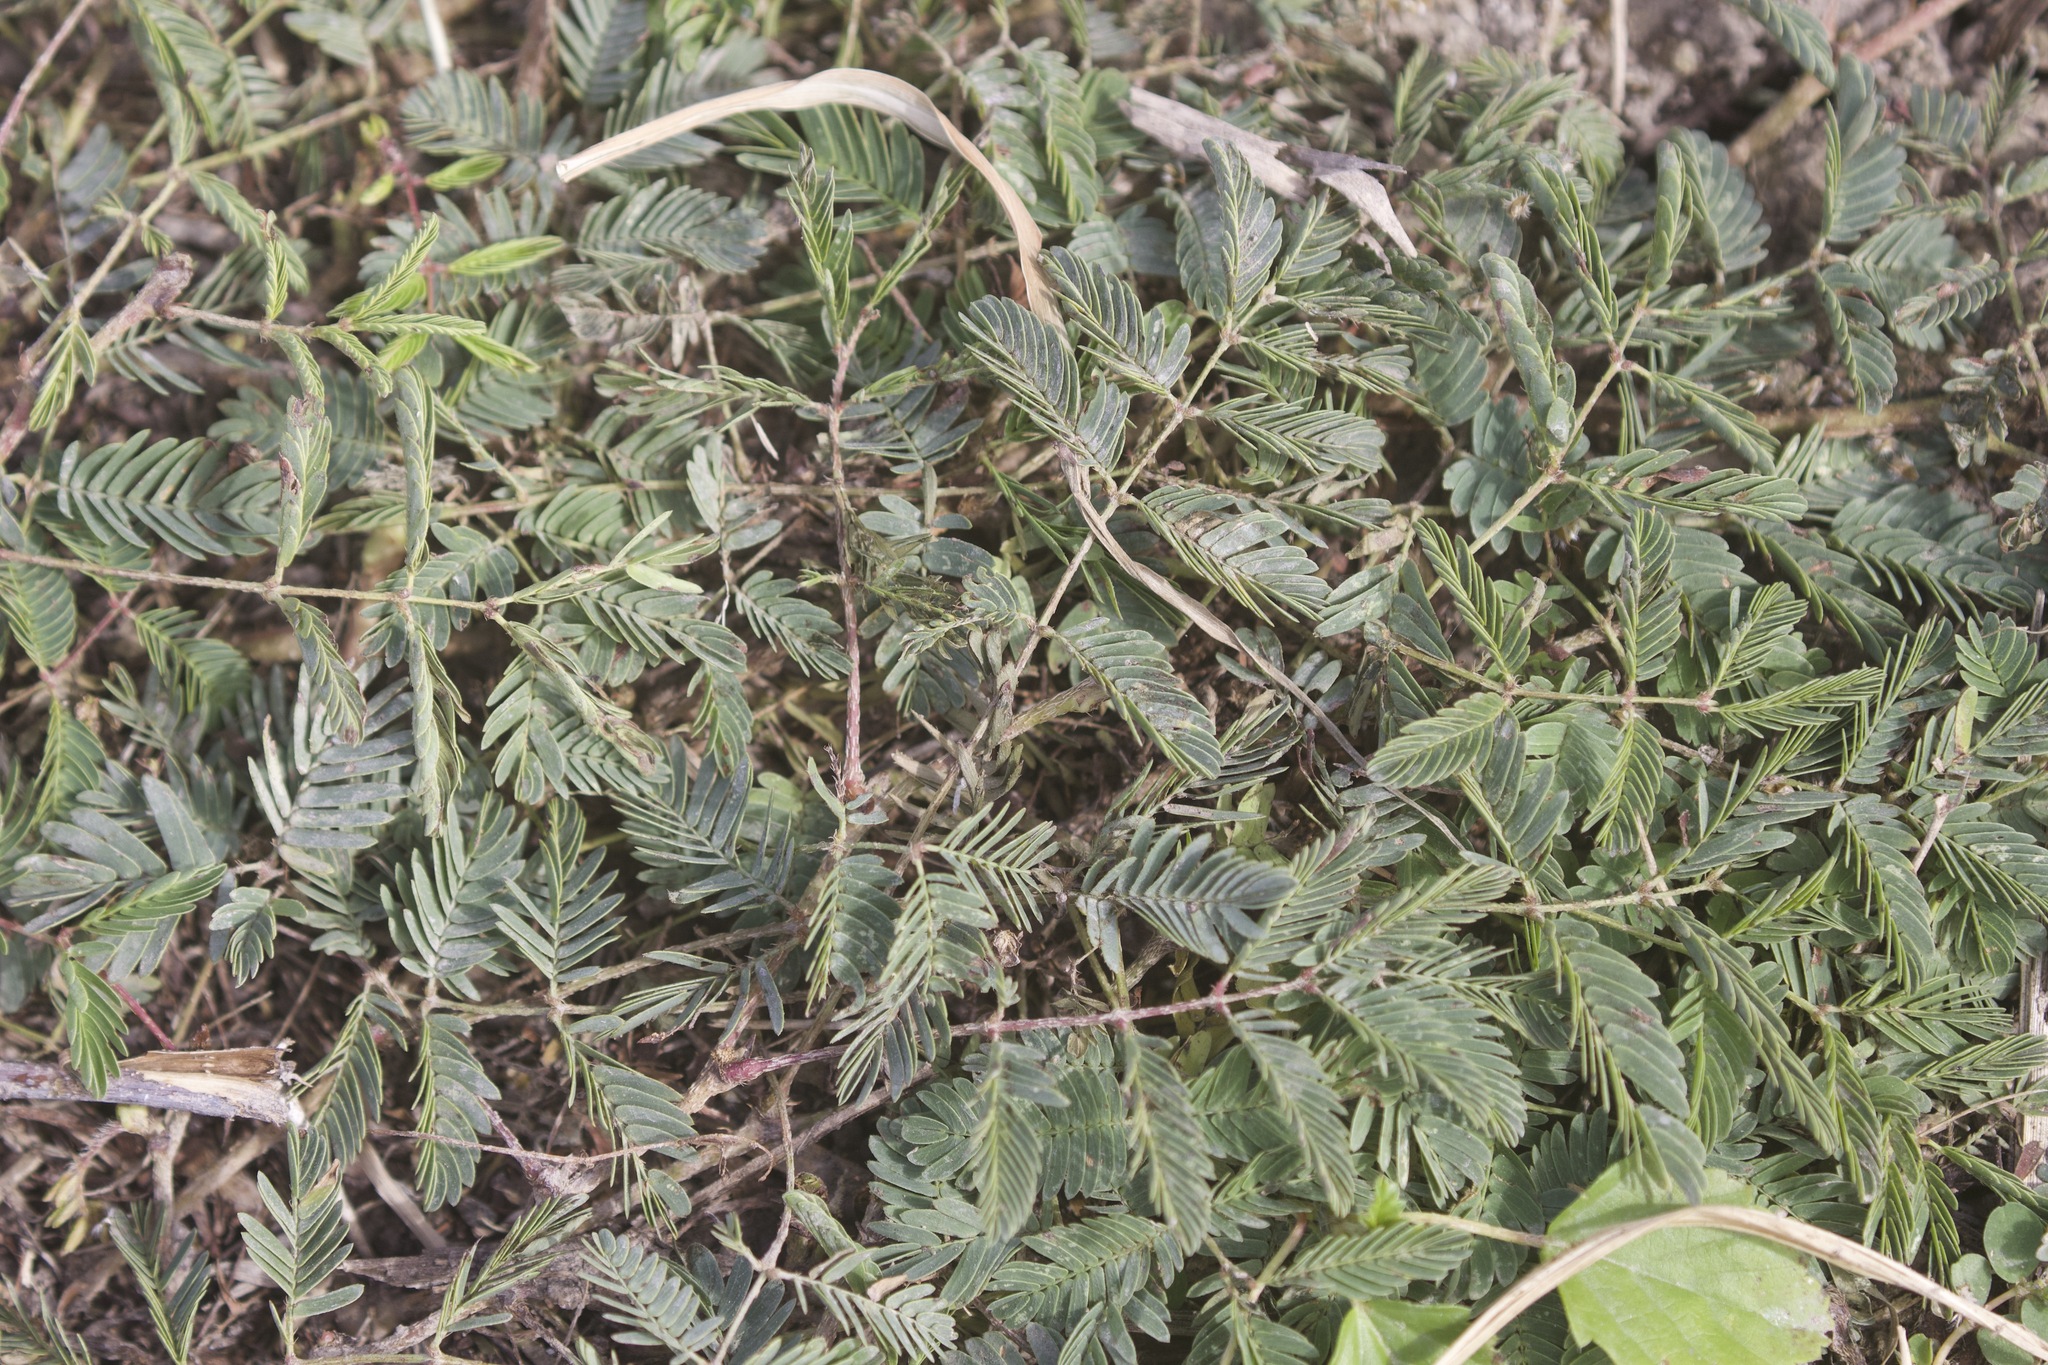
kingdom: Plantae
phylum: Tracheophyta
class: Magnoliopsida
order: Fabales
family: Fabaceae
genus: Mimosa
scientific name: Mimosa strigillosa
